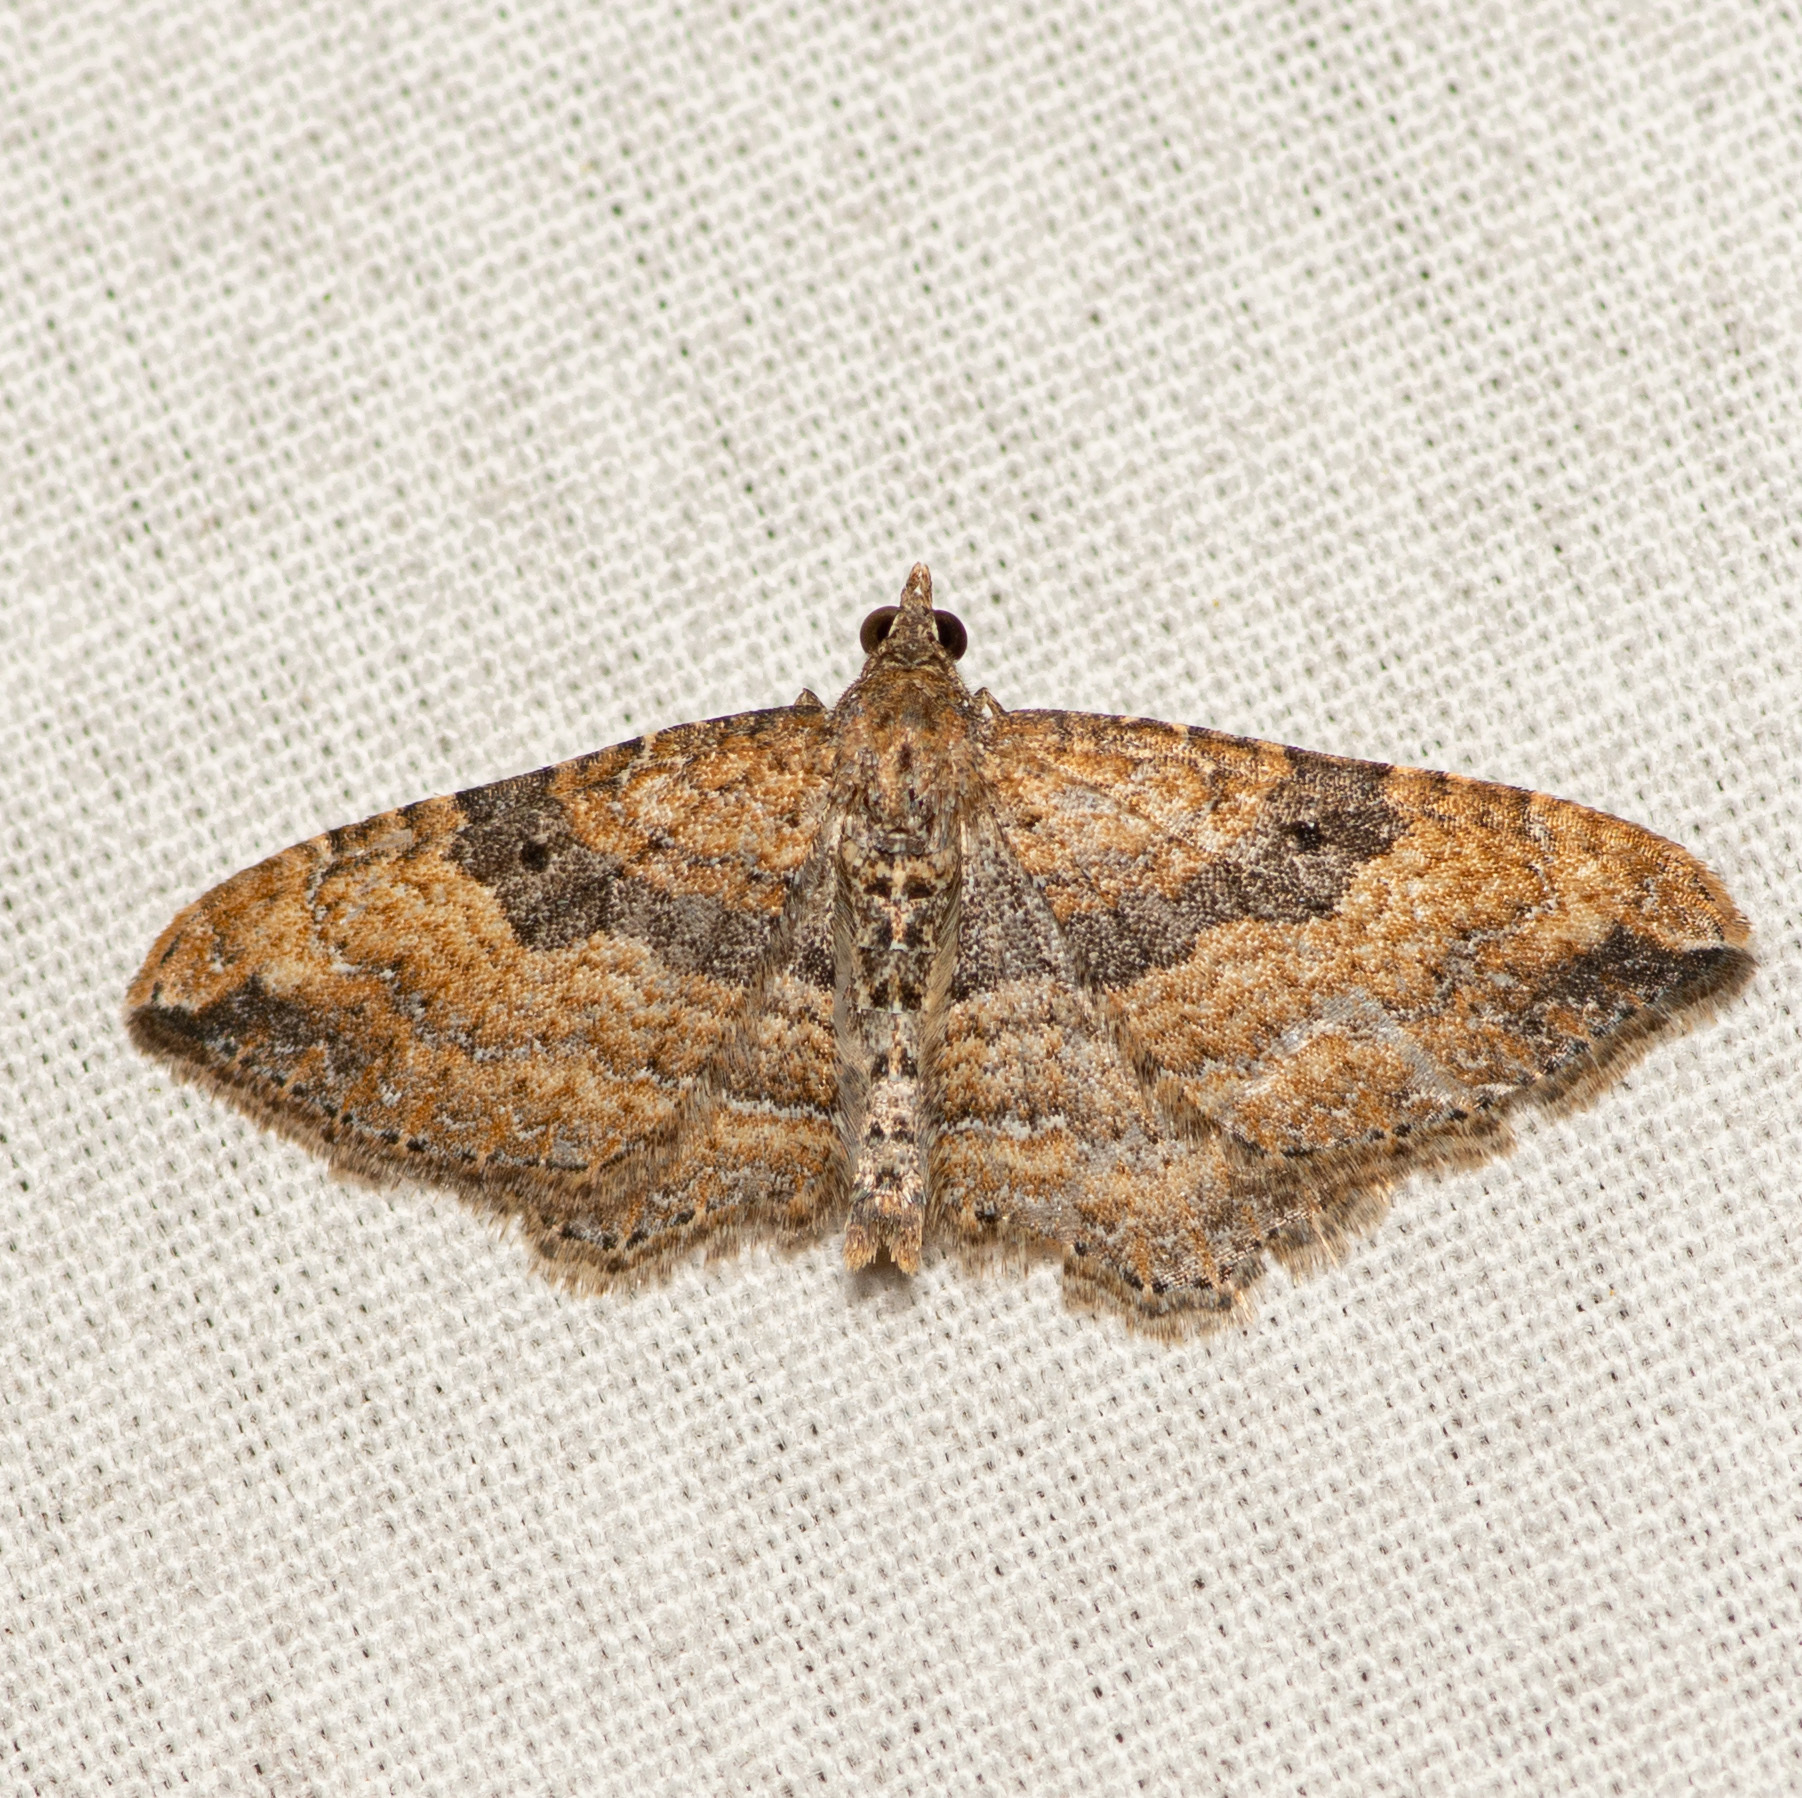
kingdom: Animalia
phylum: Arthropoda
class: Insecta
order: Lepidoptera
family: Geometridae
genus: Orthonama
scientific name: Orthonama obstipata
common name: The gem
